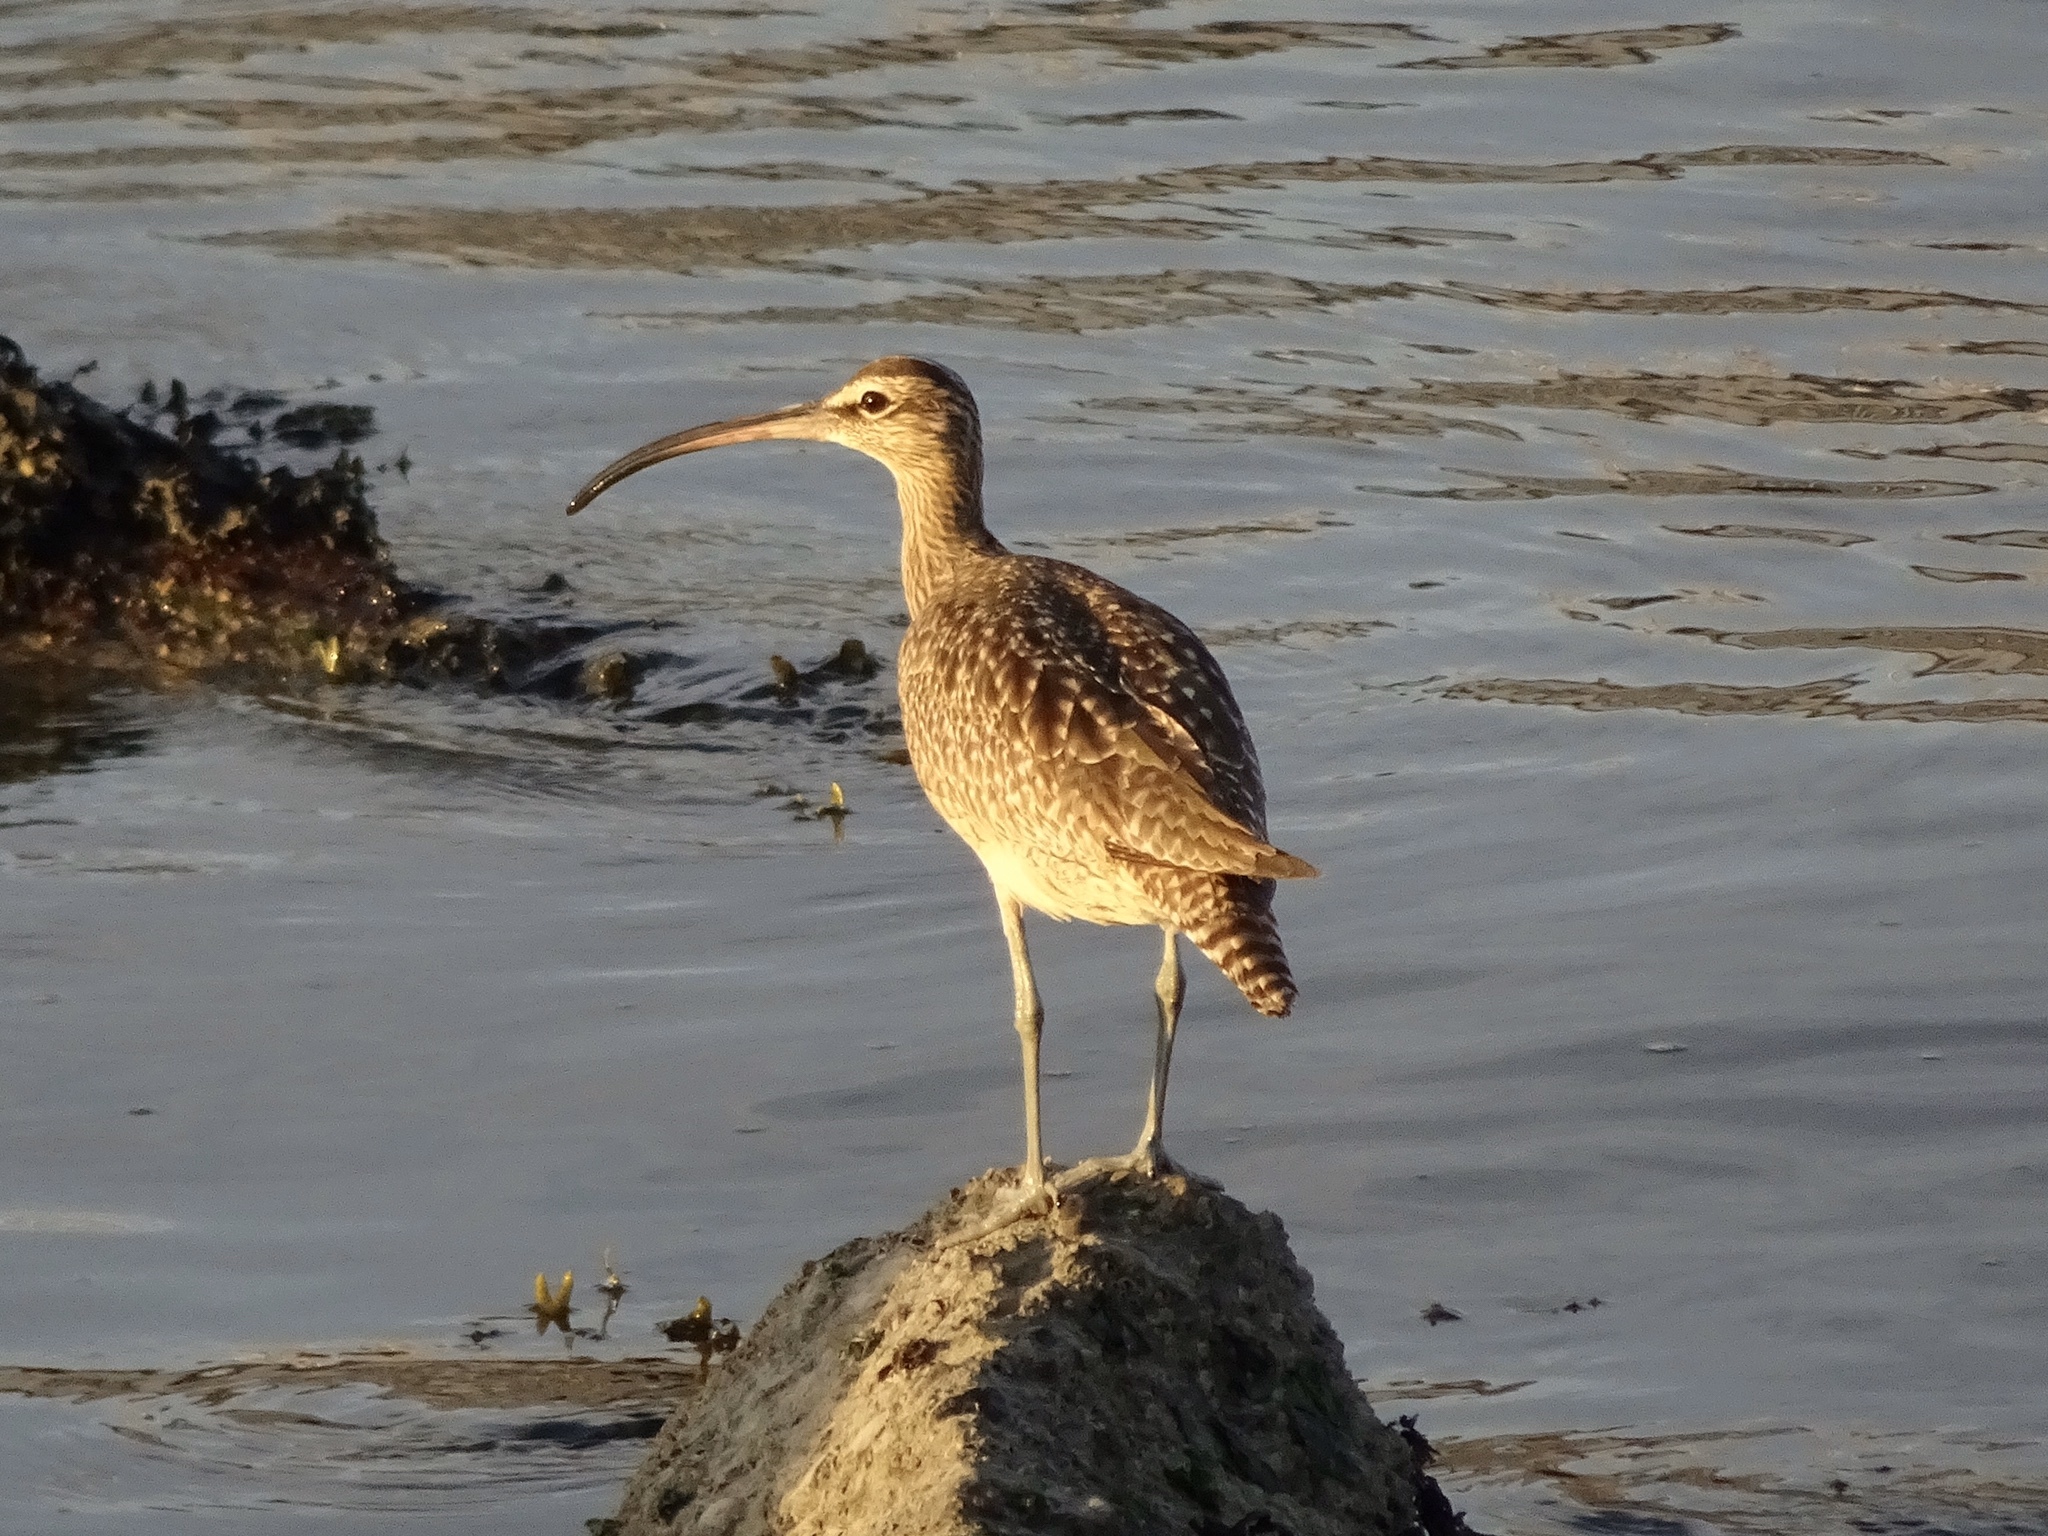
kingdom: Animalia
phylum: Chordata
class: Aves
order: Charadriiformes
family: Scolopacidae
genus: Numenius
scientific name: Numenius phaeopus
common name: Whimbrel
